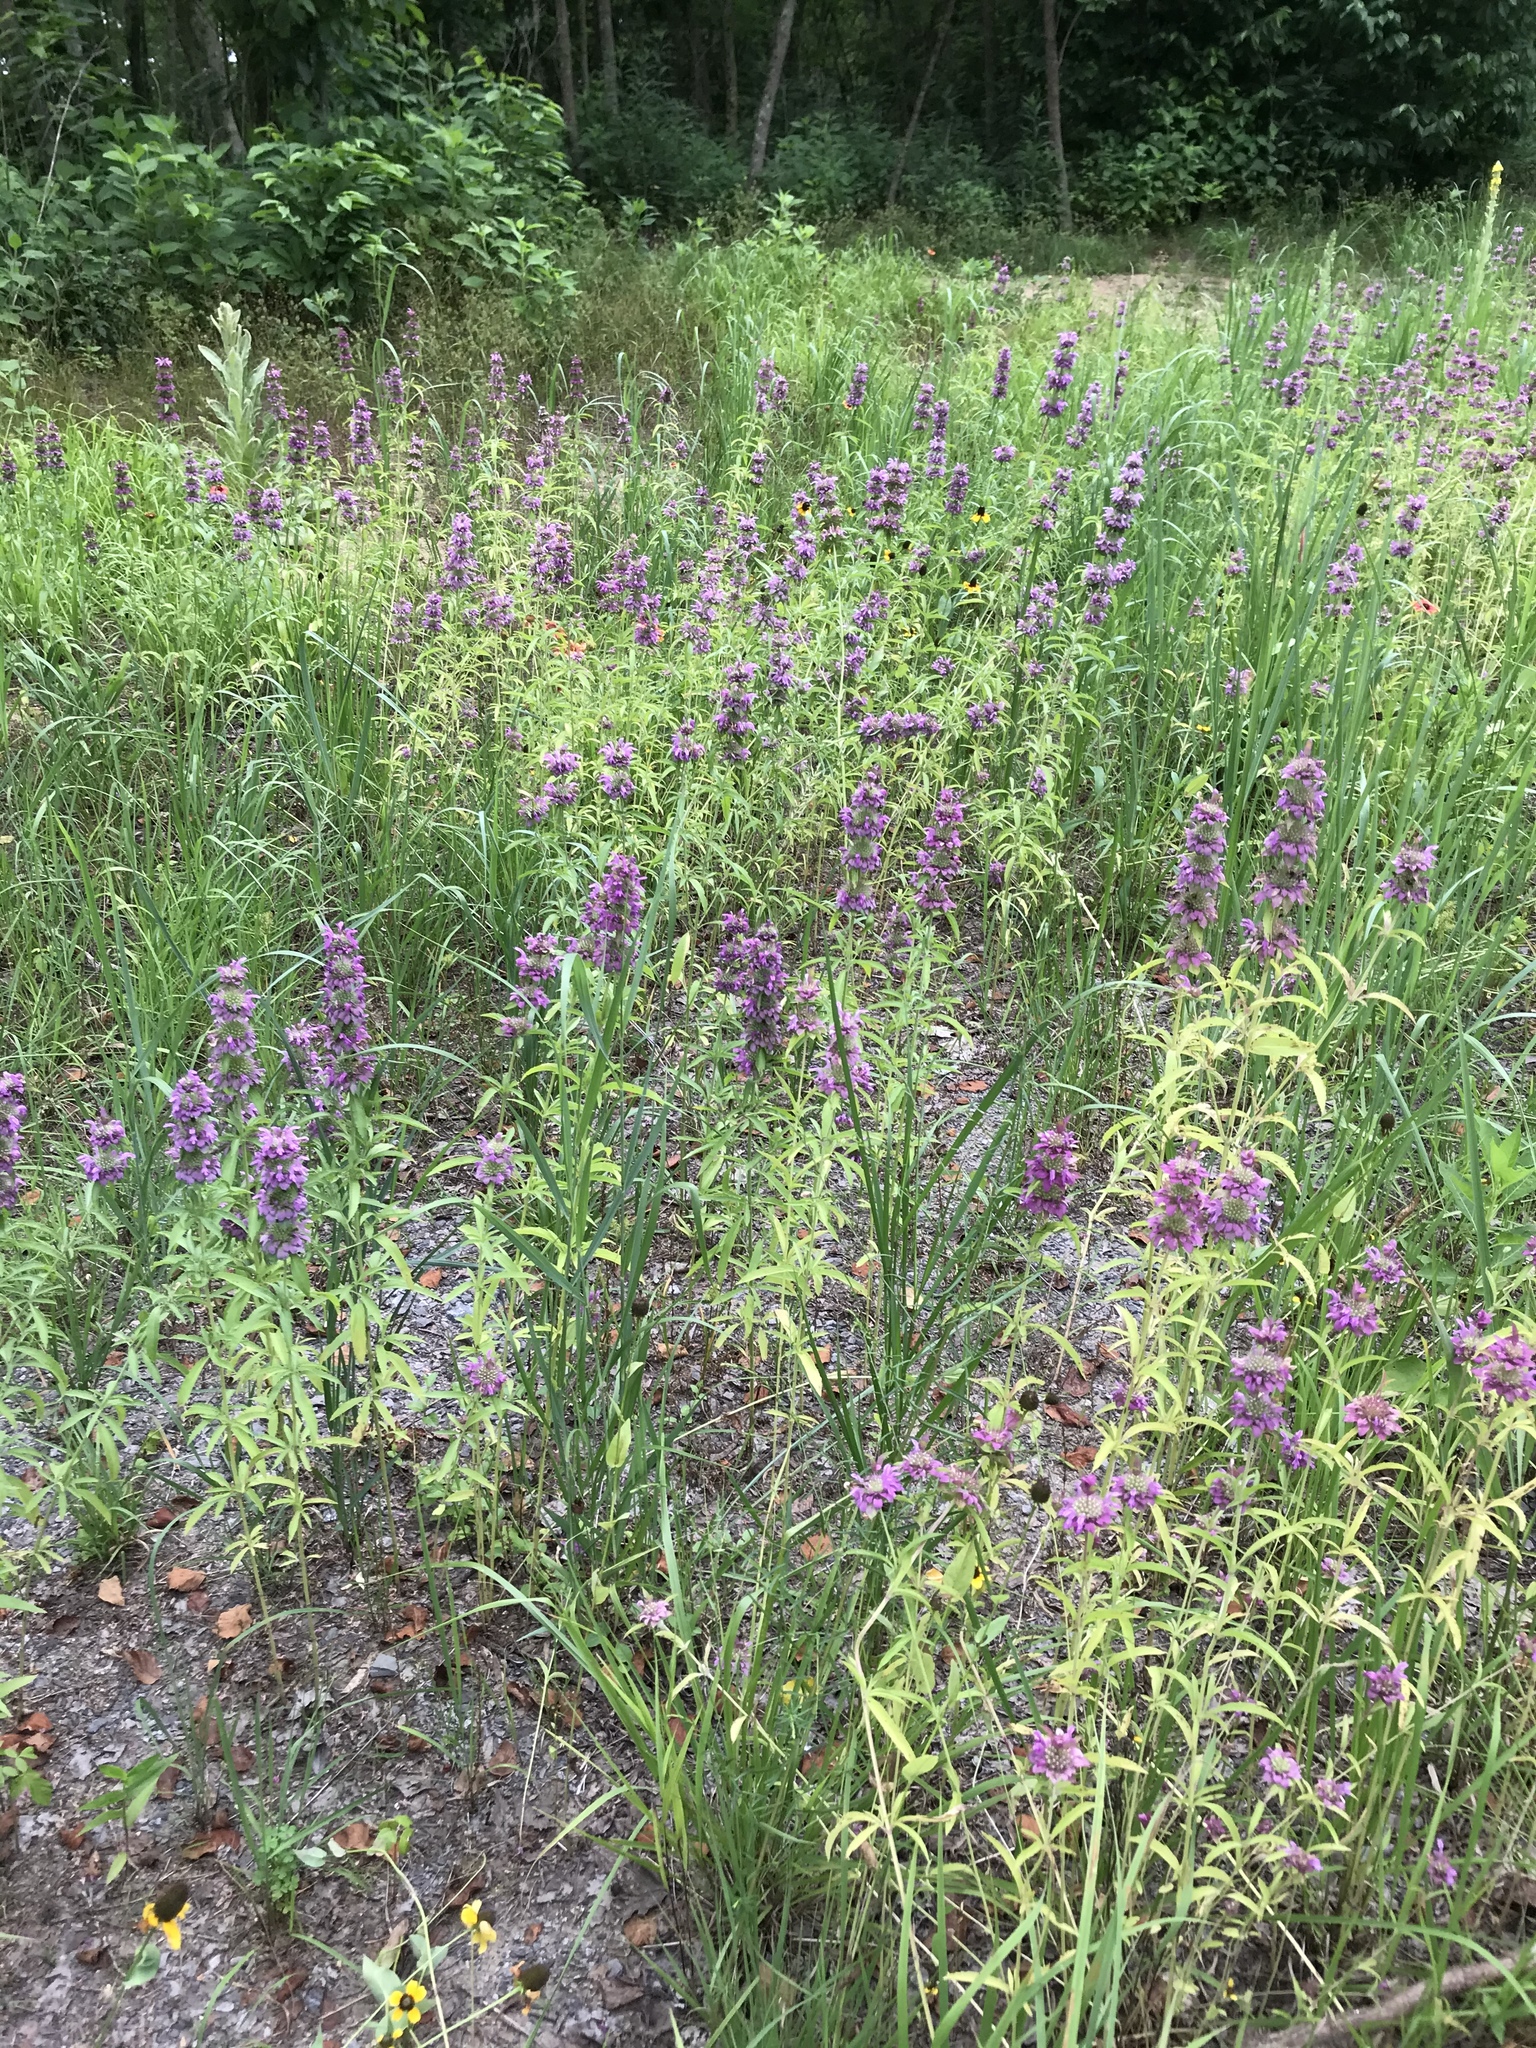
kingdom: Plantae
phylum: Tracheophyta
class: Magnoliopsida
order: Lamiales
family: Lamiaceae
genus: Monarda
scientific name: Monarda citriodora
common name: Lemon beebalm
